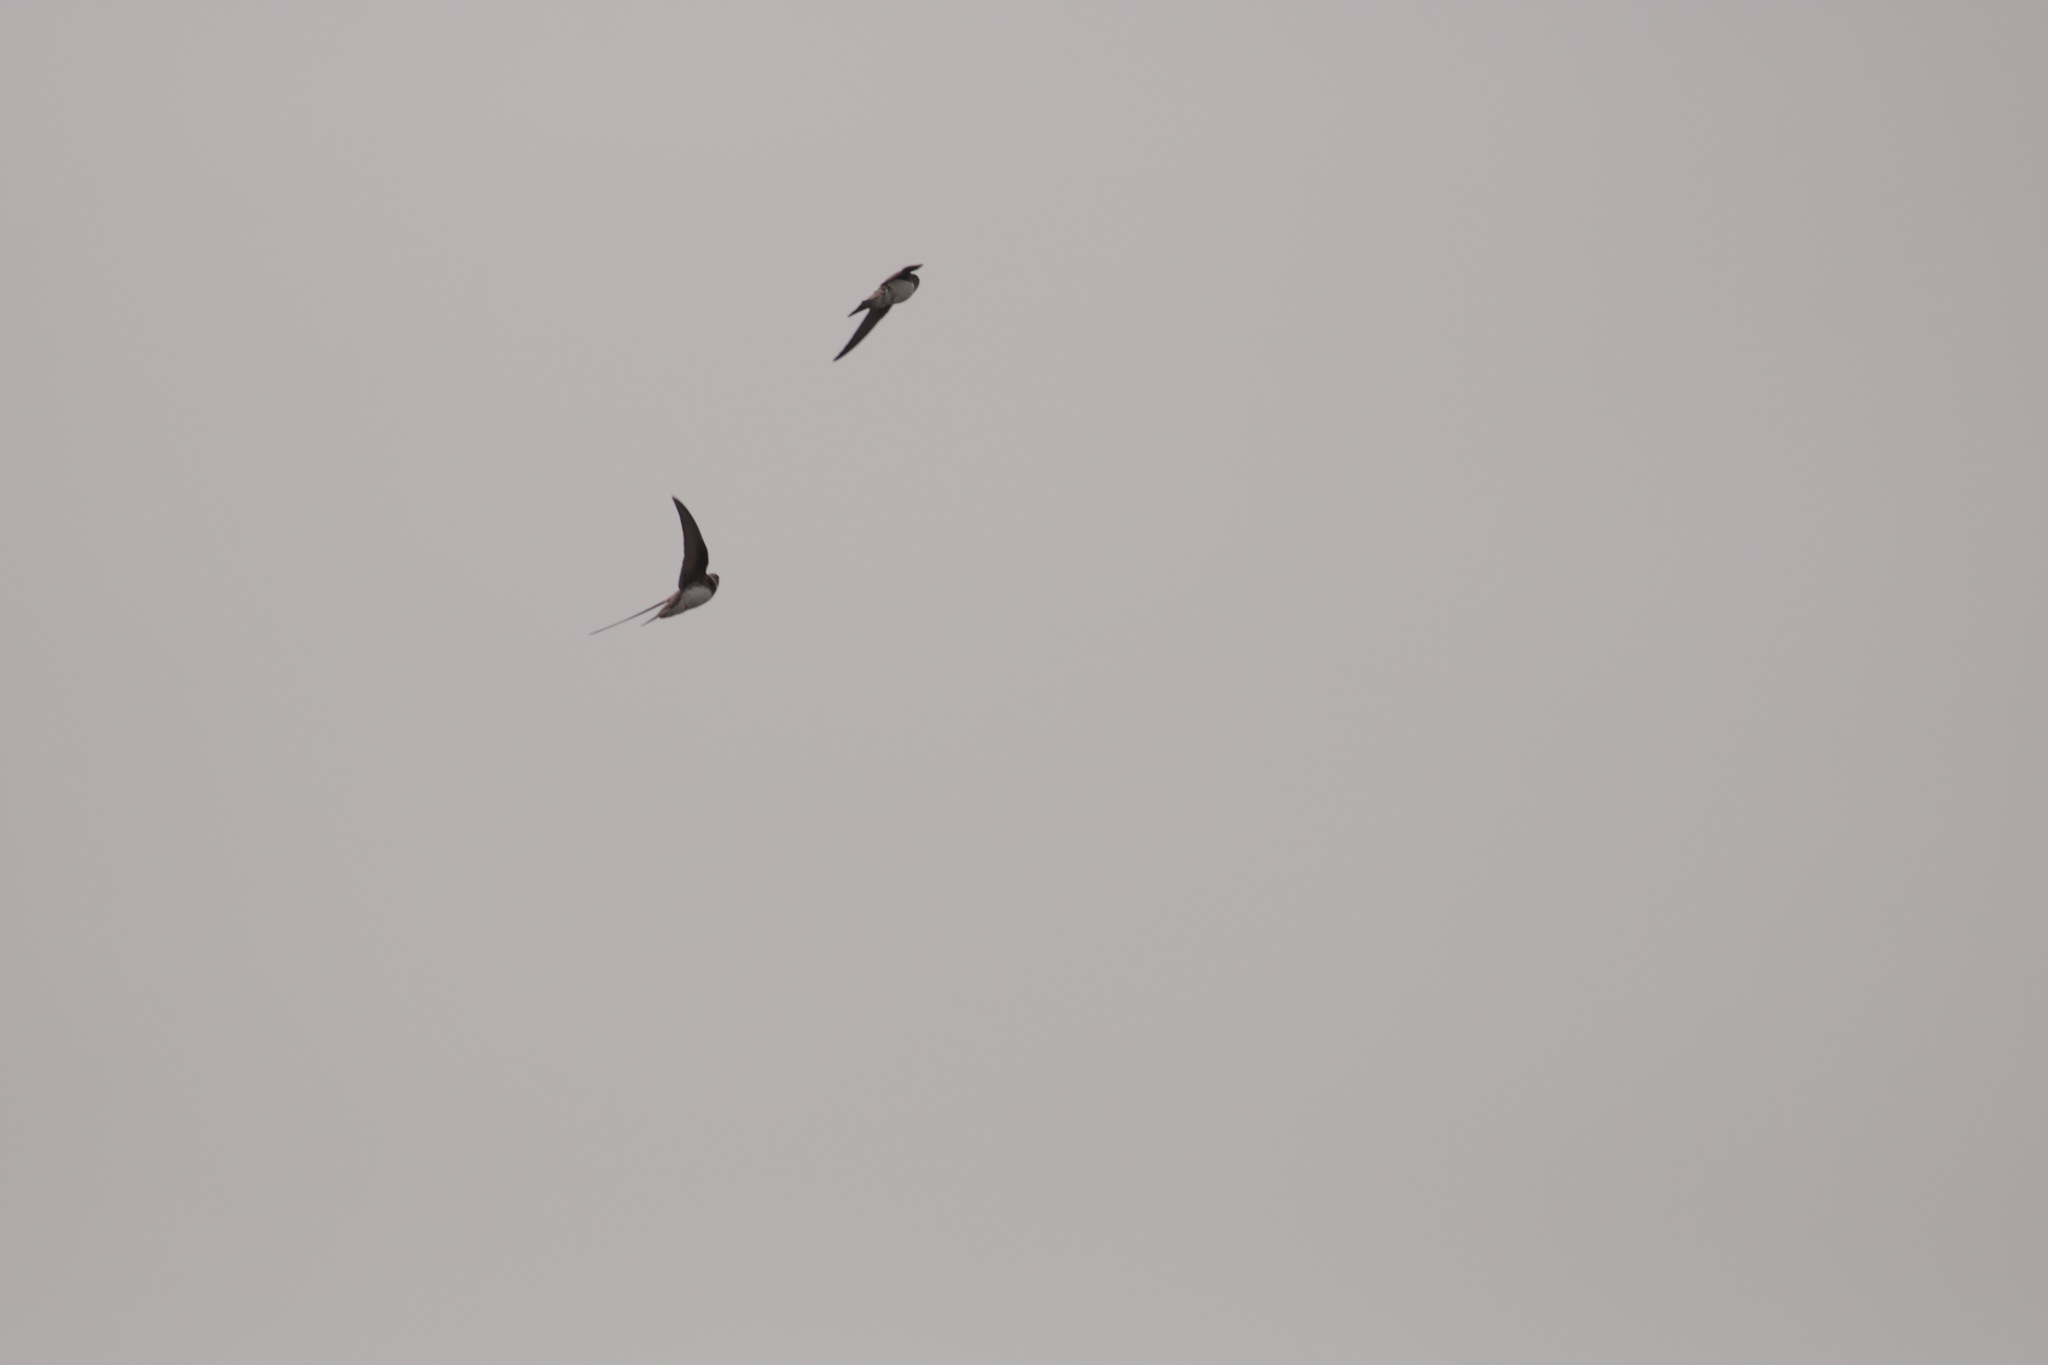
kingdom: Animalia
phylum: Chordata
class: Aves
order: Passeriformes
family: Hirundinidae
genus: Riparia
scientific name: Riparia riparia
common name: Sand martin
